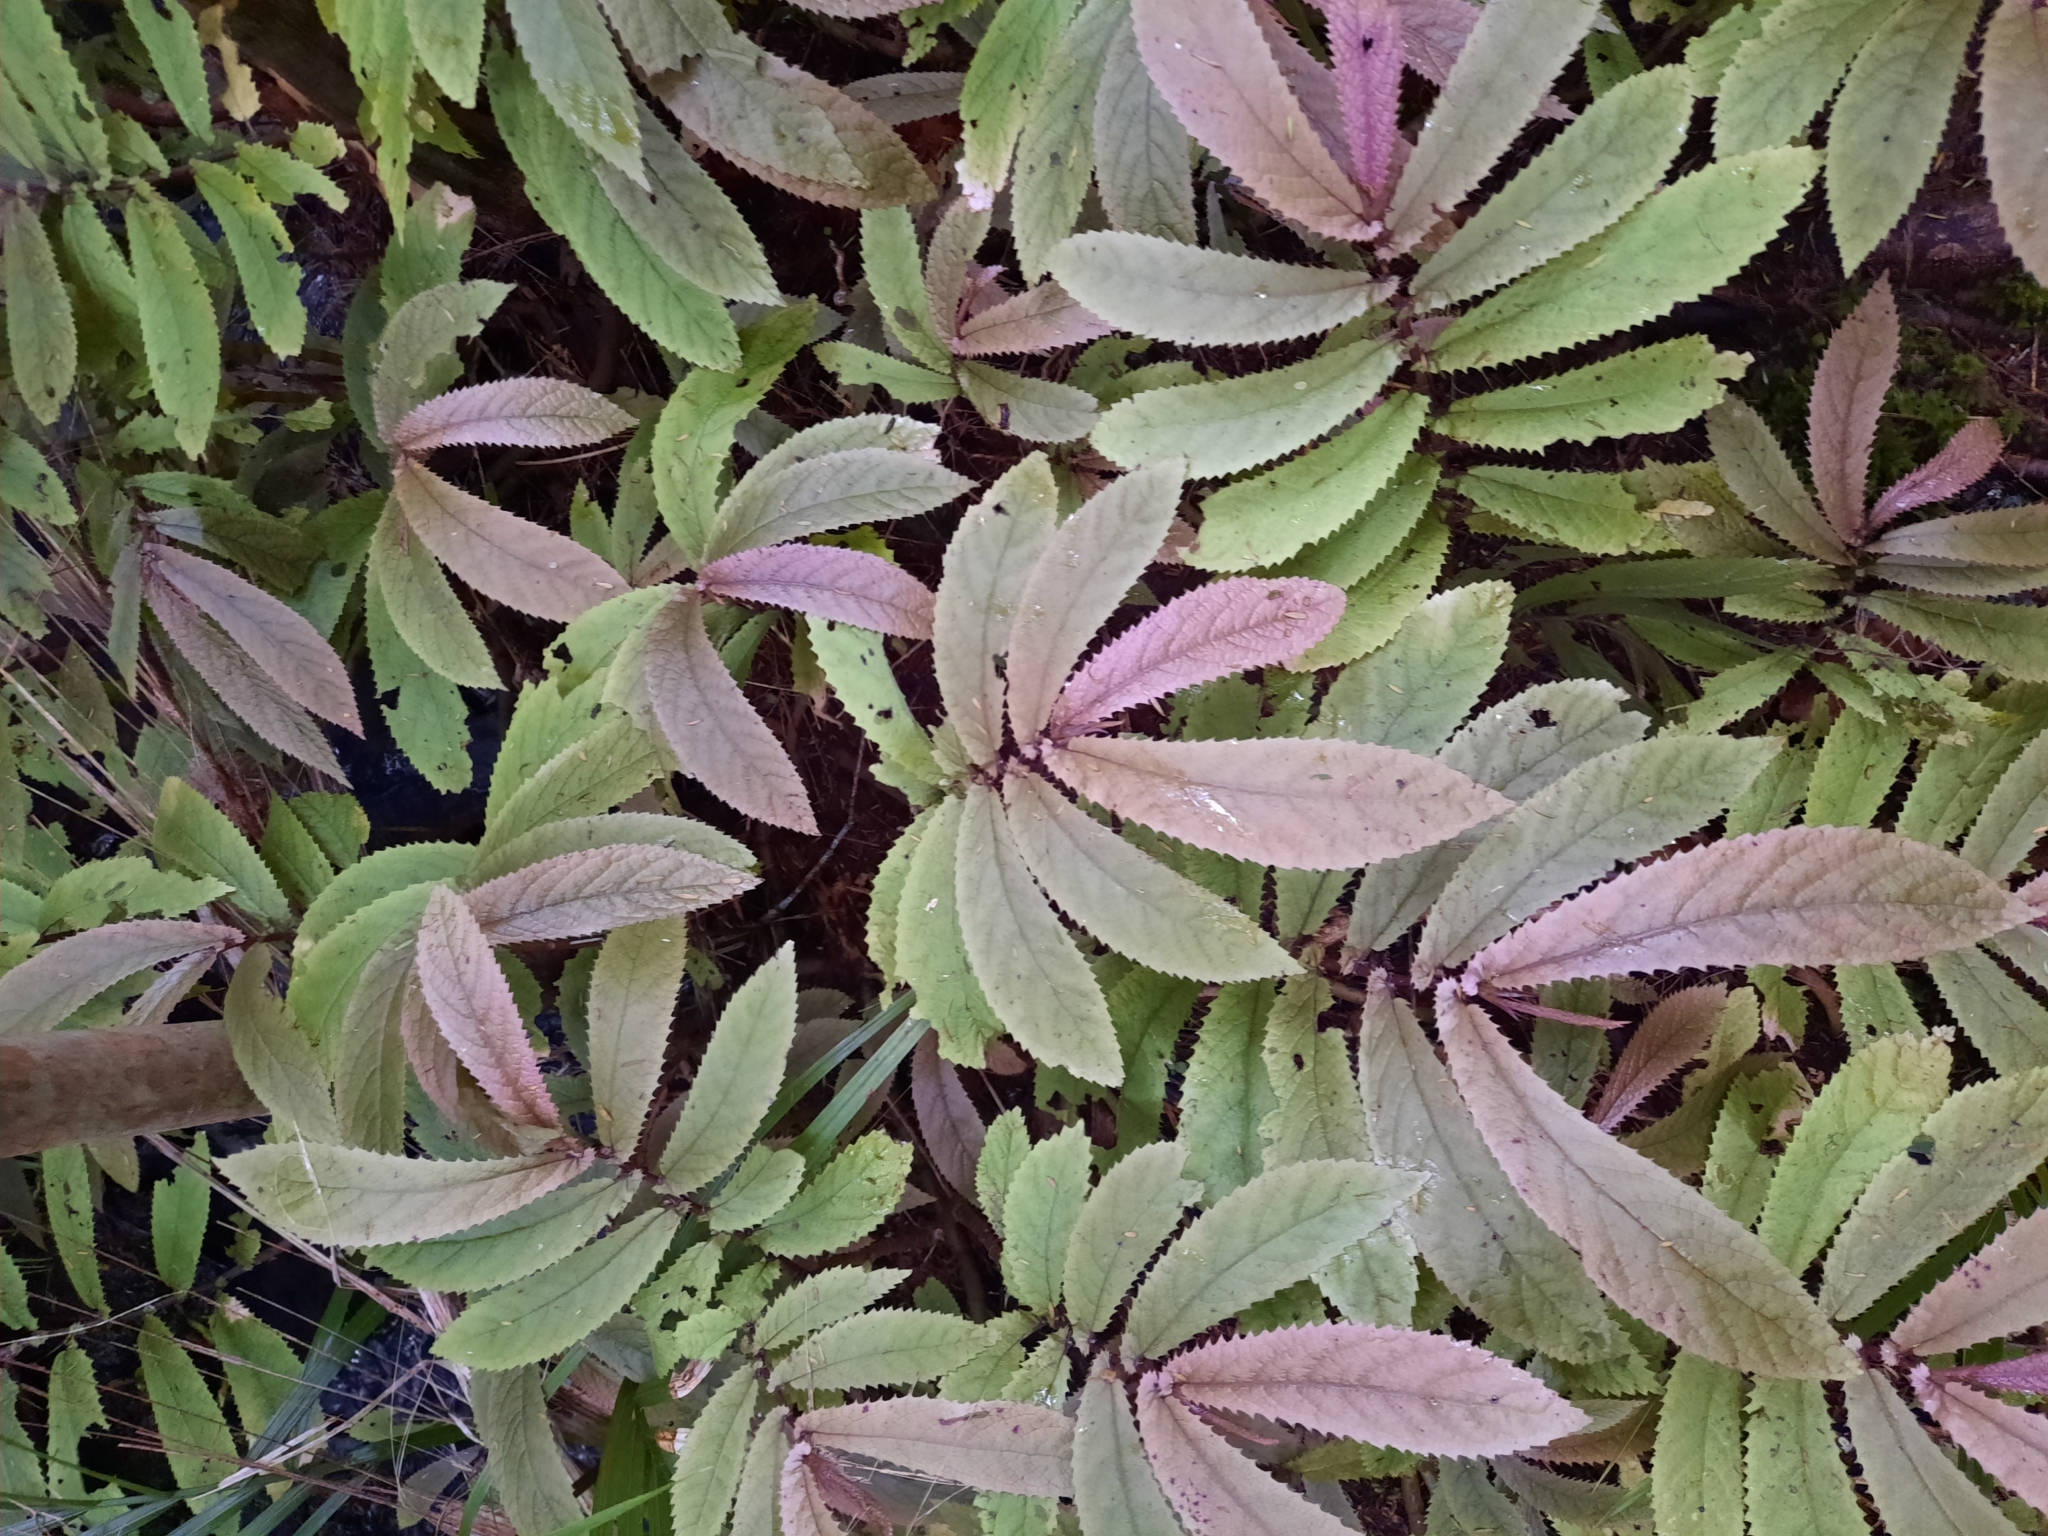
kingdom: Plantae
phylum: Tracheophyta
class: Magnoliopsida
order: Rosales
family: Urticaceae
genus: Elatostema
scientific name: Elatostema rugosum
